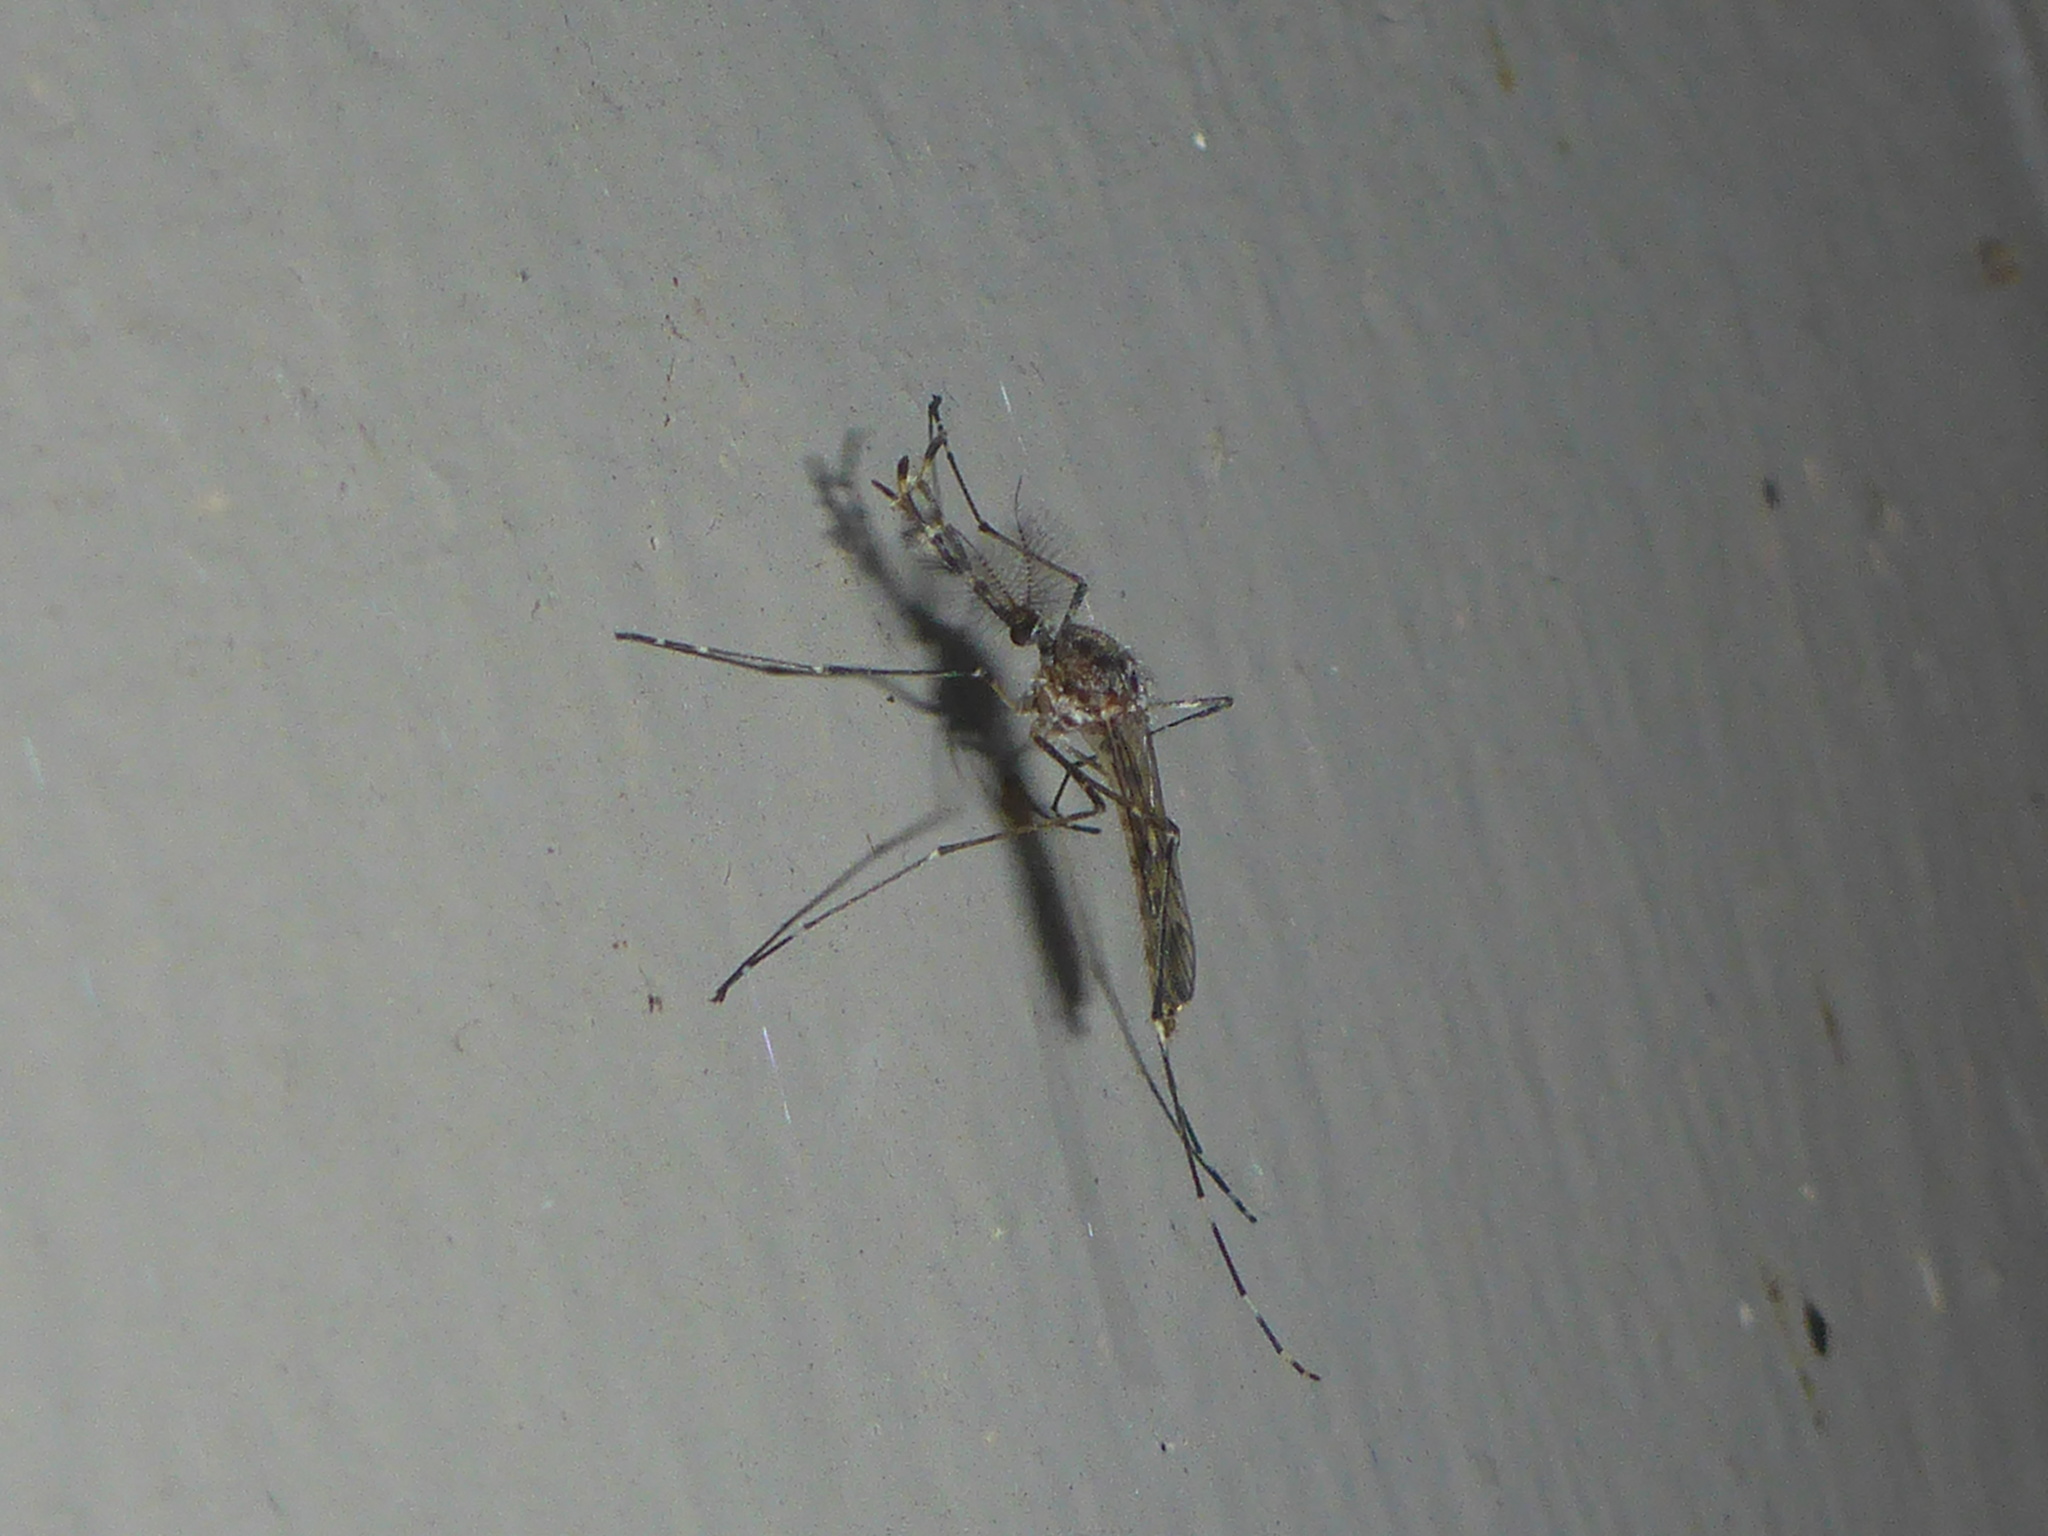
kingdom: Animalia
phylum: Arthropoda
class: Insecta
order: Diptera
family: Culicidae
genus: Culiseta
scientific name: Culiseta particeps
